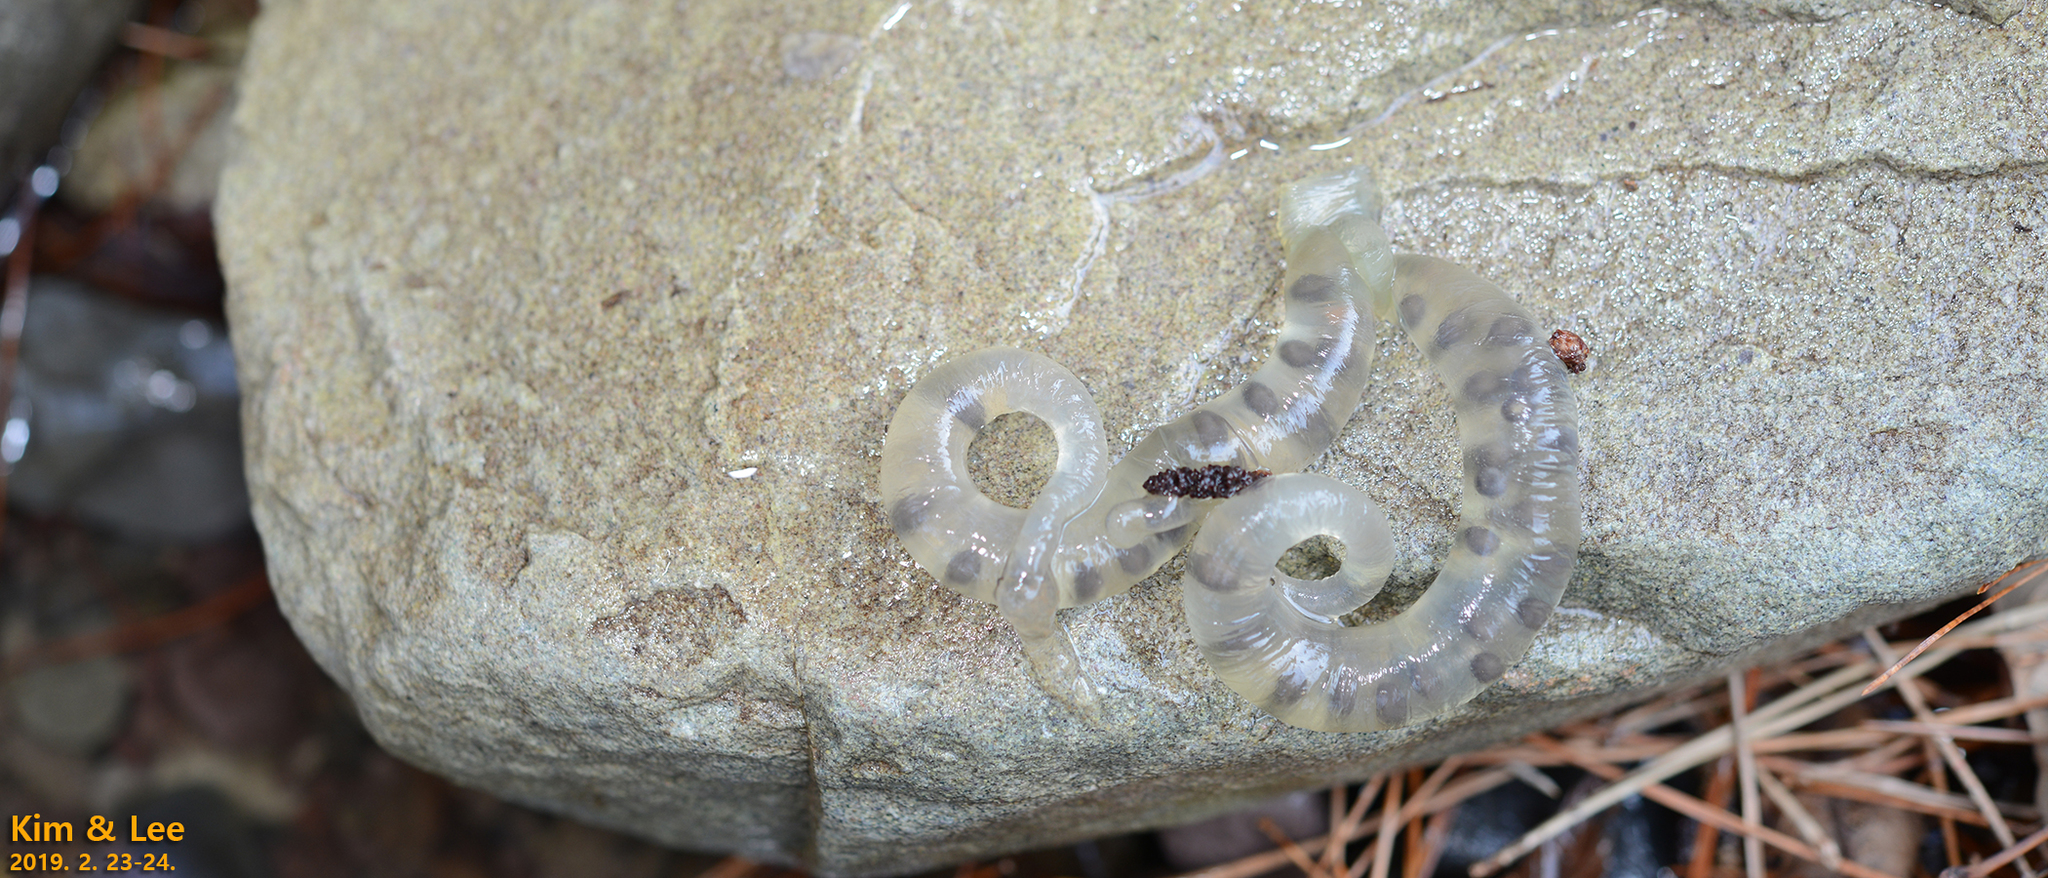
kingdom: Animalia
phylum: Chordata
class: Amphibia
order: Caudata
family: Hynobiidae
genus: Hynobius
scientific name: Hynobius perplicatus
